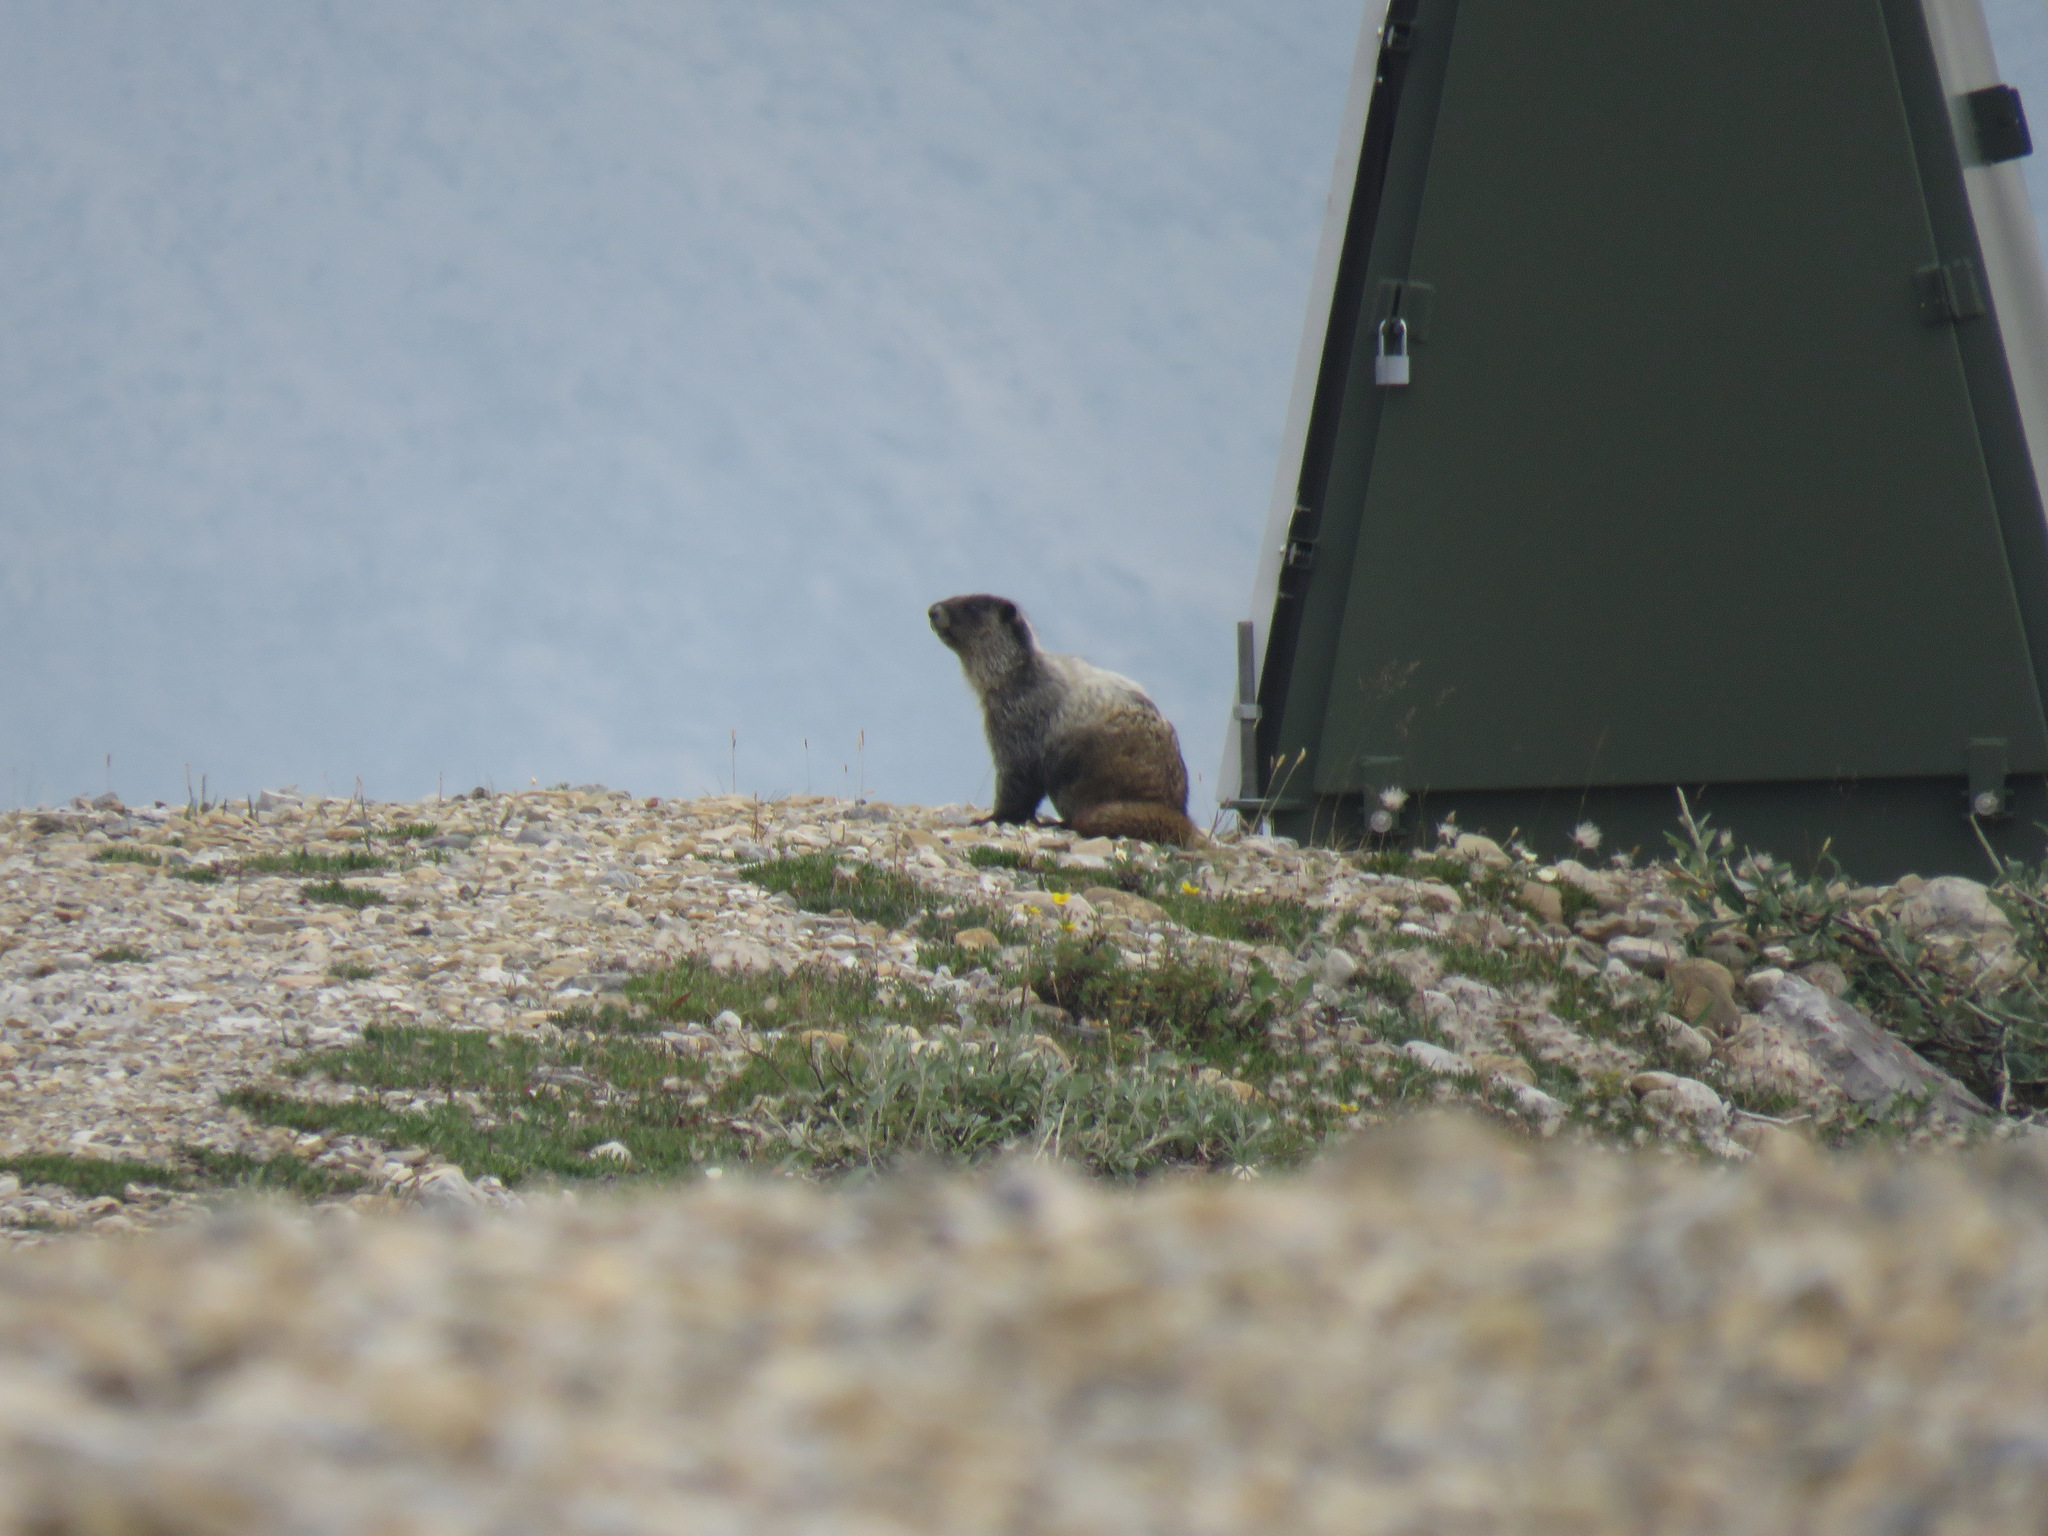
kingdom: Animalia
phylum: Chordata
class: Mammalia
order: Rodentia
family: Sciuridae
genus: Marmota
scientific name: Marmota caligata
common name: Hoary marmot
